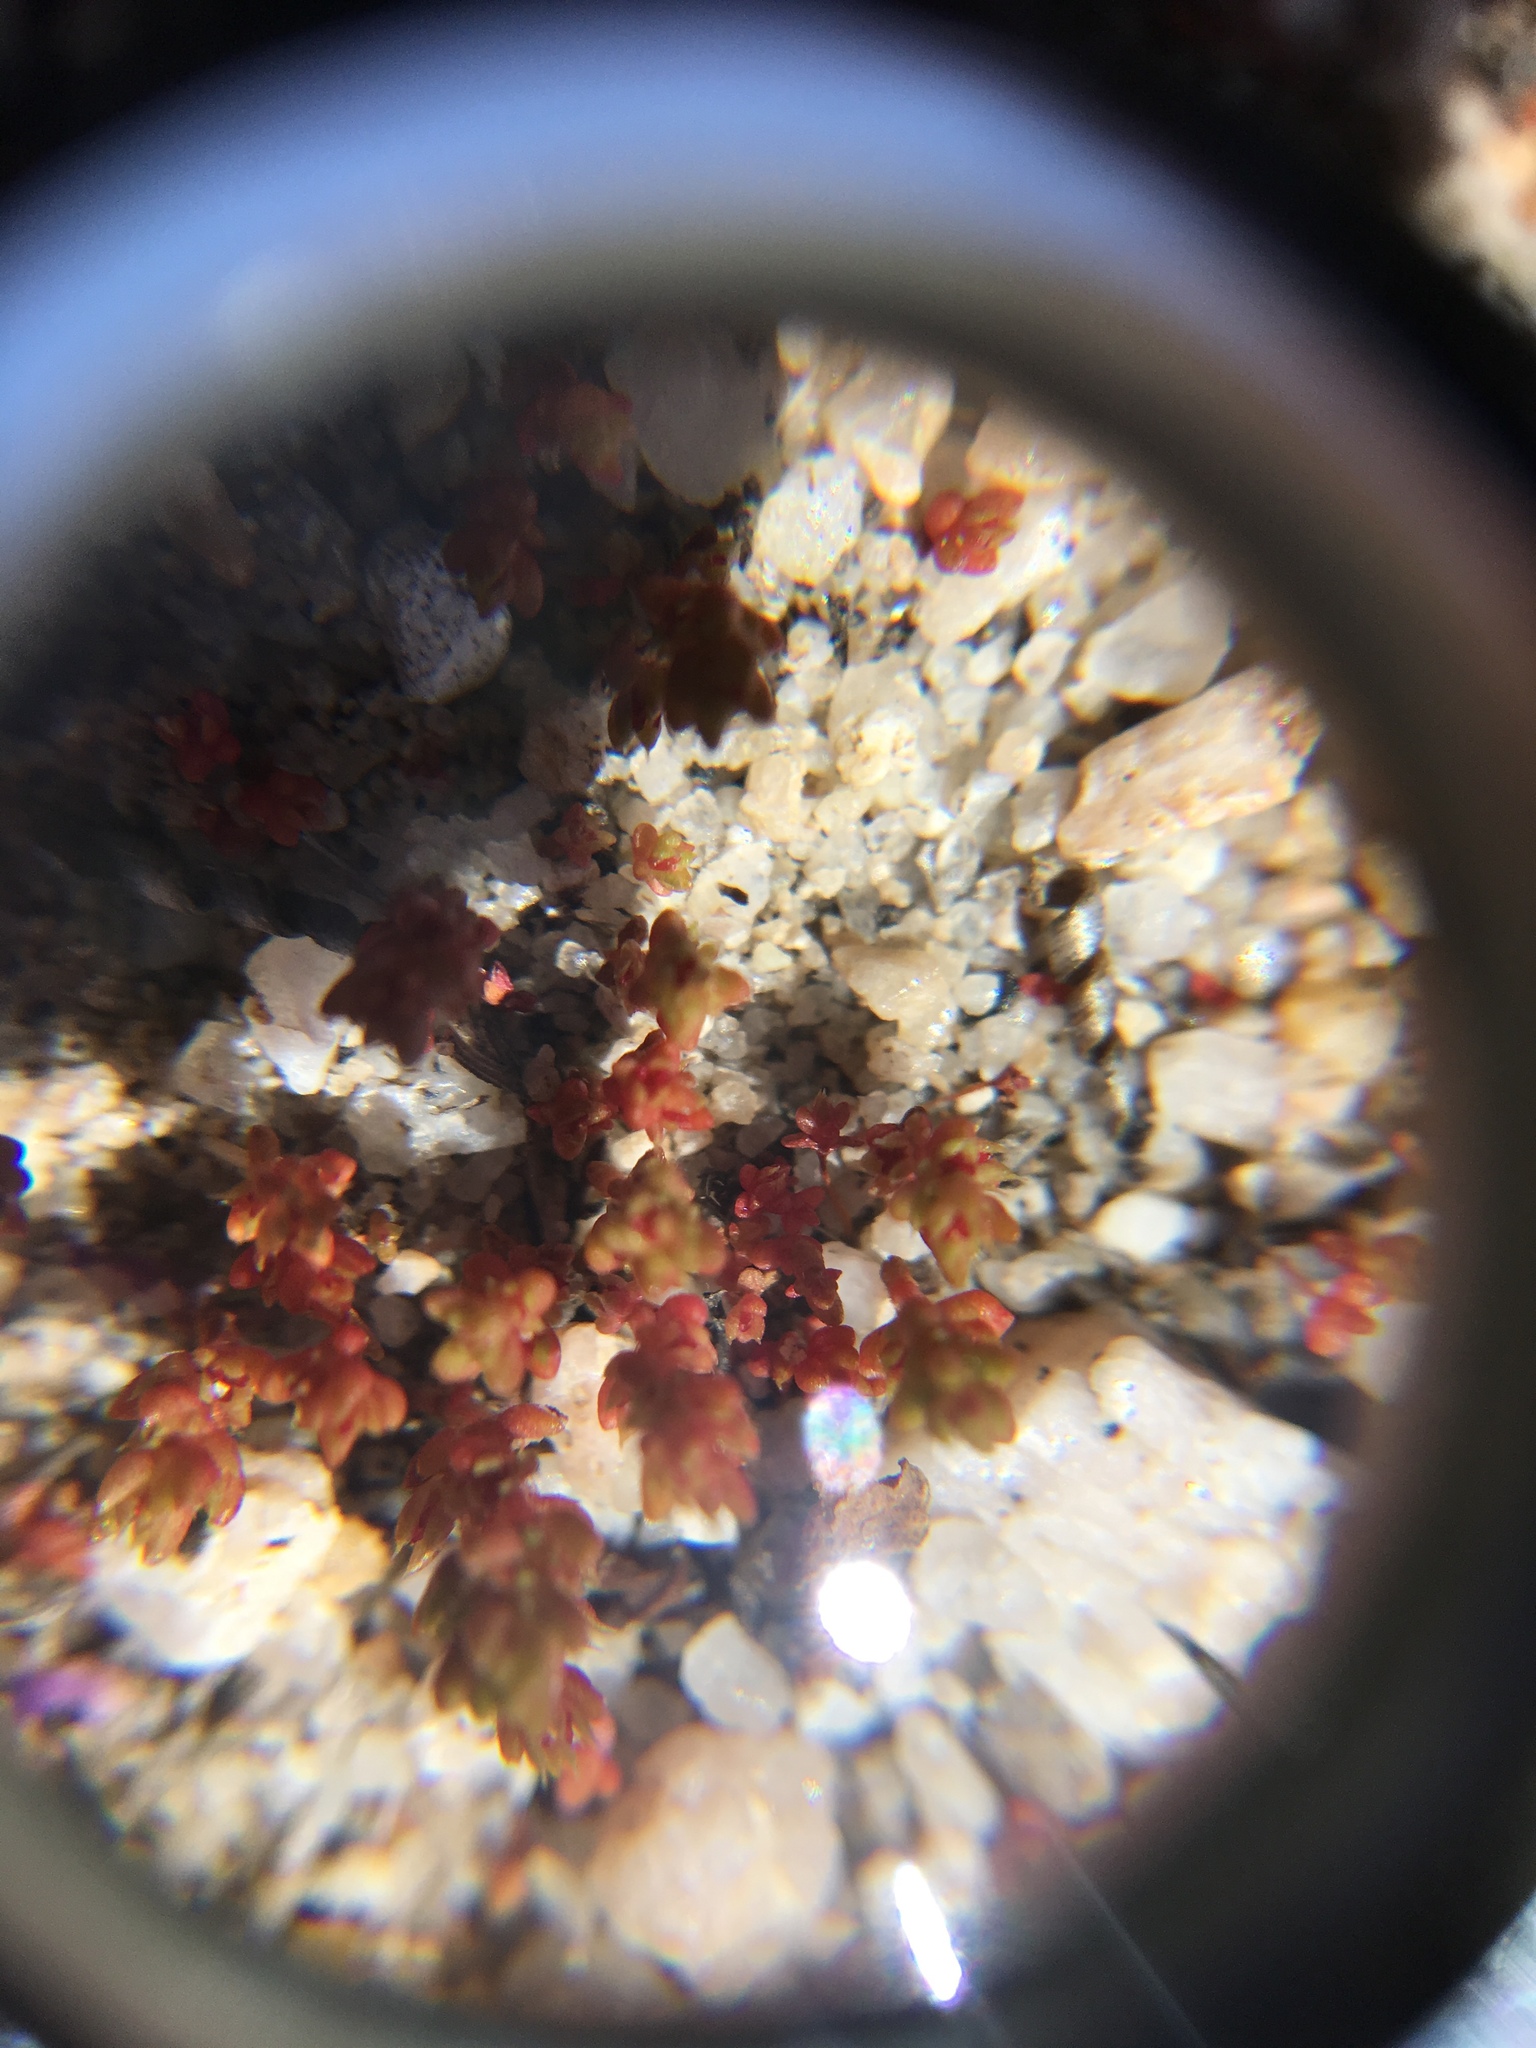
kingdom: Plantae
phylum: Tracheophyta
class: Magnoliopsida
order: Saxifragales
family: Crassulaceae
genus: Crassula
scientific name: Crassula connata
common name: Erect pygmyweed
